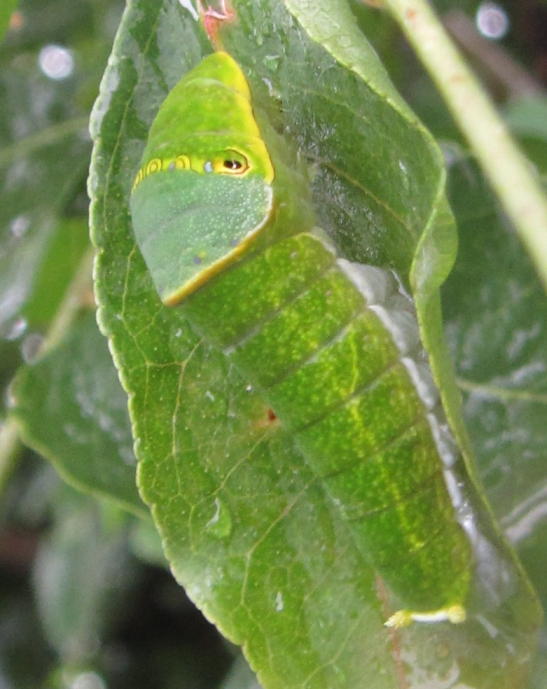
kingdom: Animalia
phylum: Arthropoda
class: Insecta
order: Lepidoptera
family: Papilionidae
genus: Papilio
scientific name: Papilio nireus
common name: Greenbanded swallowtail
